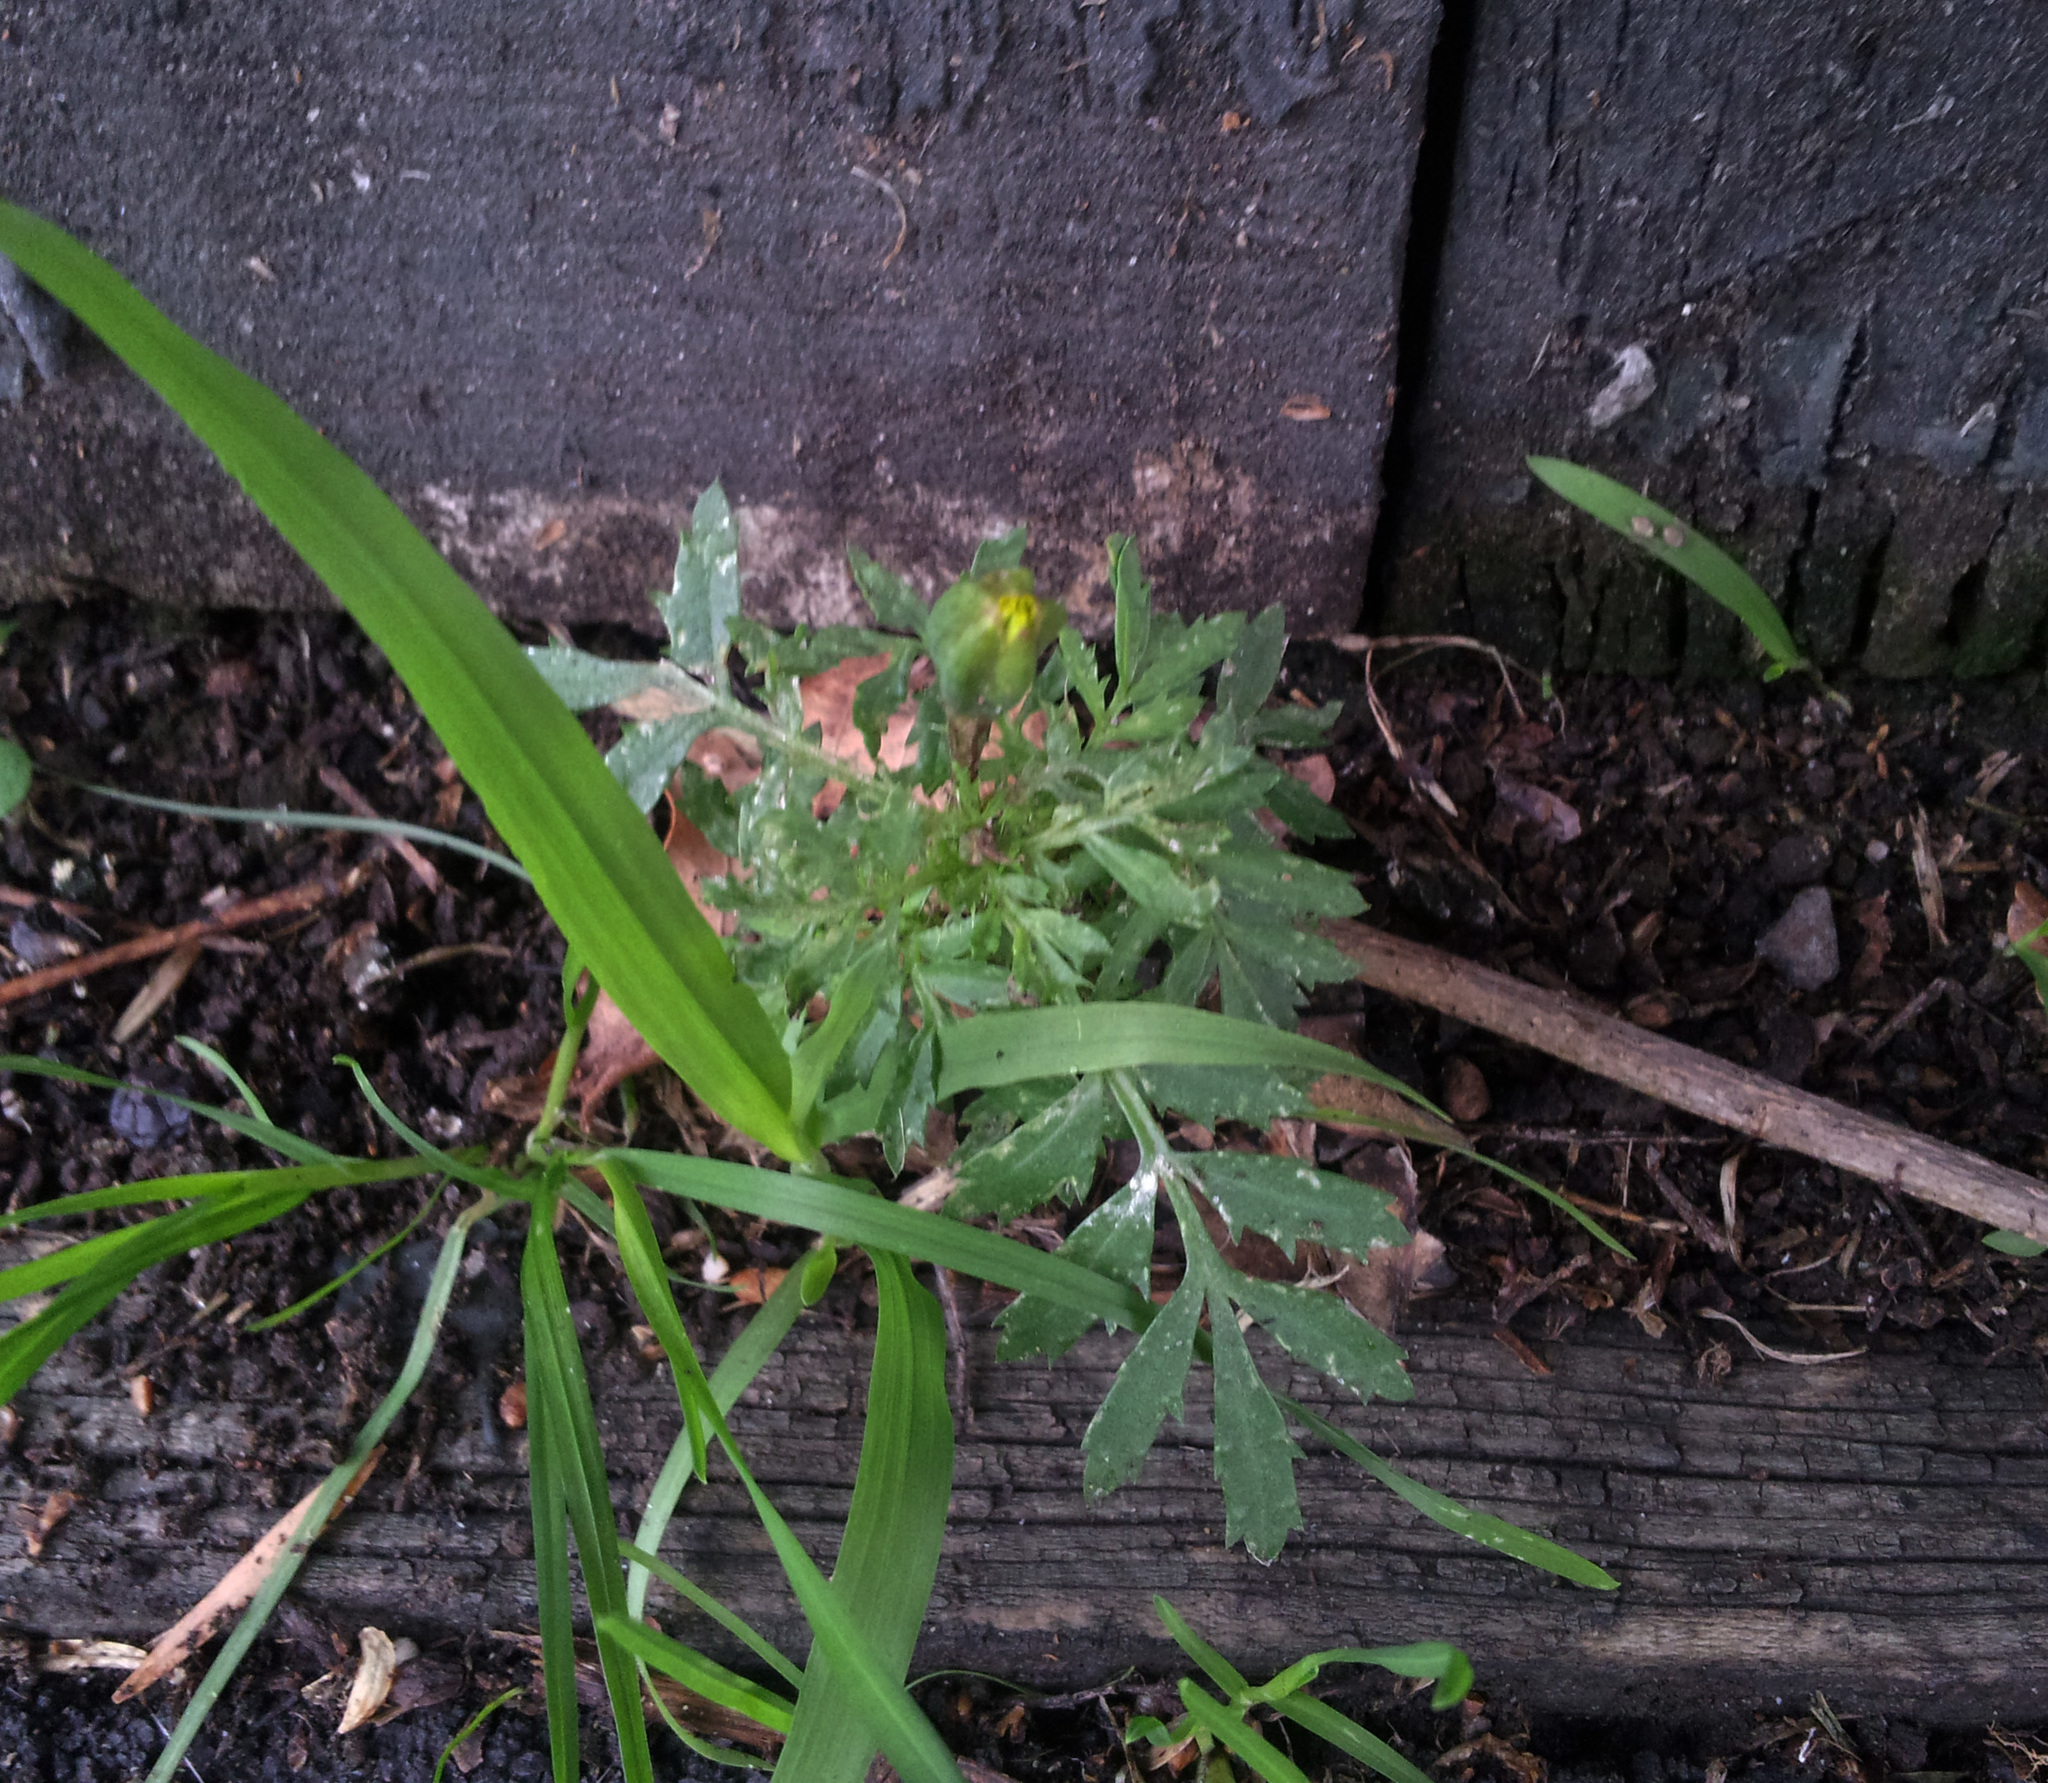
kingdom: Plantae
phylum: Tracheophyta
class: Magnoliopsida
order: Asterales
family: Asteraceae
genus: Tagetes
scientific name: Tagetes erecta
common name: African marigold
